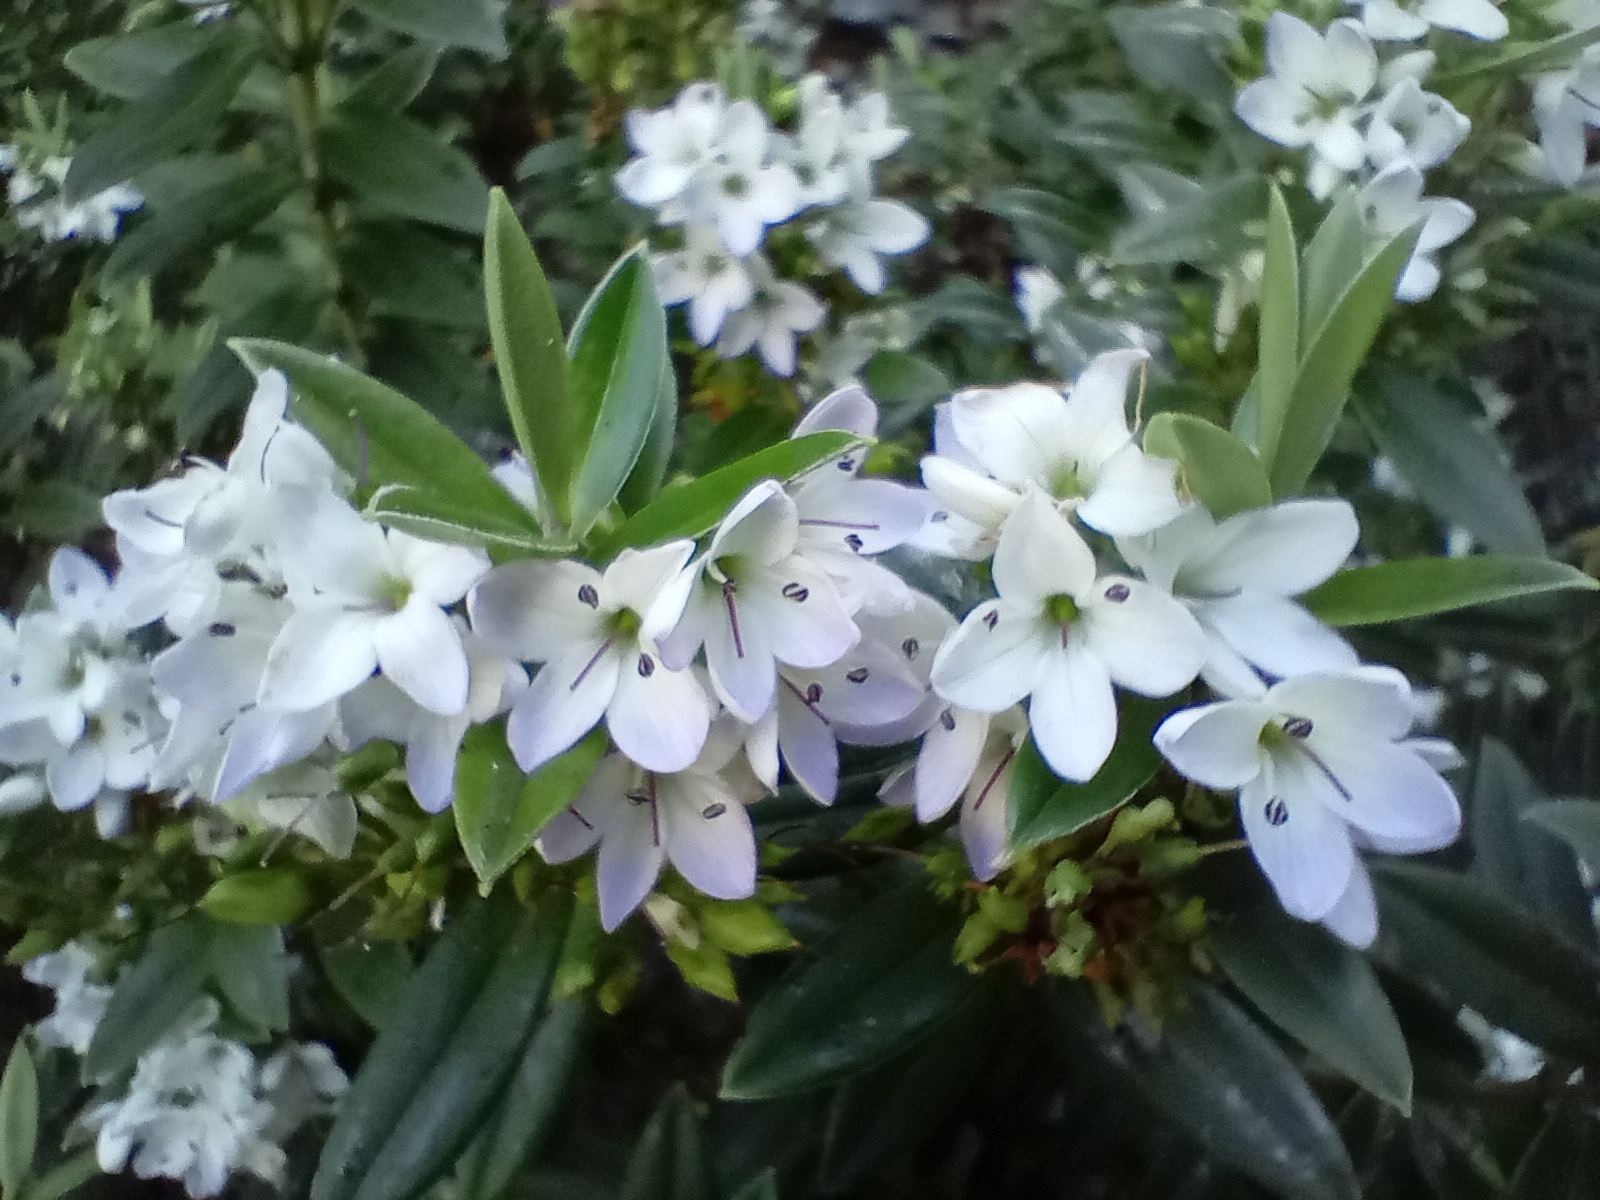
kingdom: Plantae
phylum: Tracheophyta
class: Magnoliopsida
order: Lamiales
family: Plantaginaceae
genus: Veronica
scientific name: Veronica elliptica
